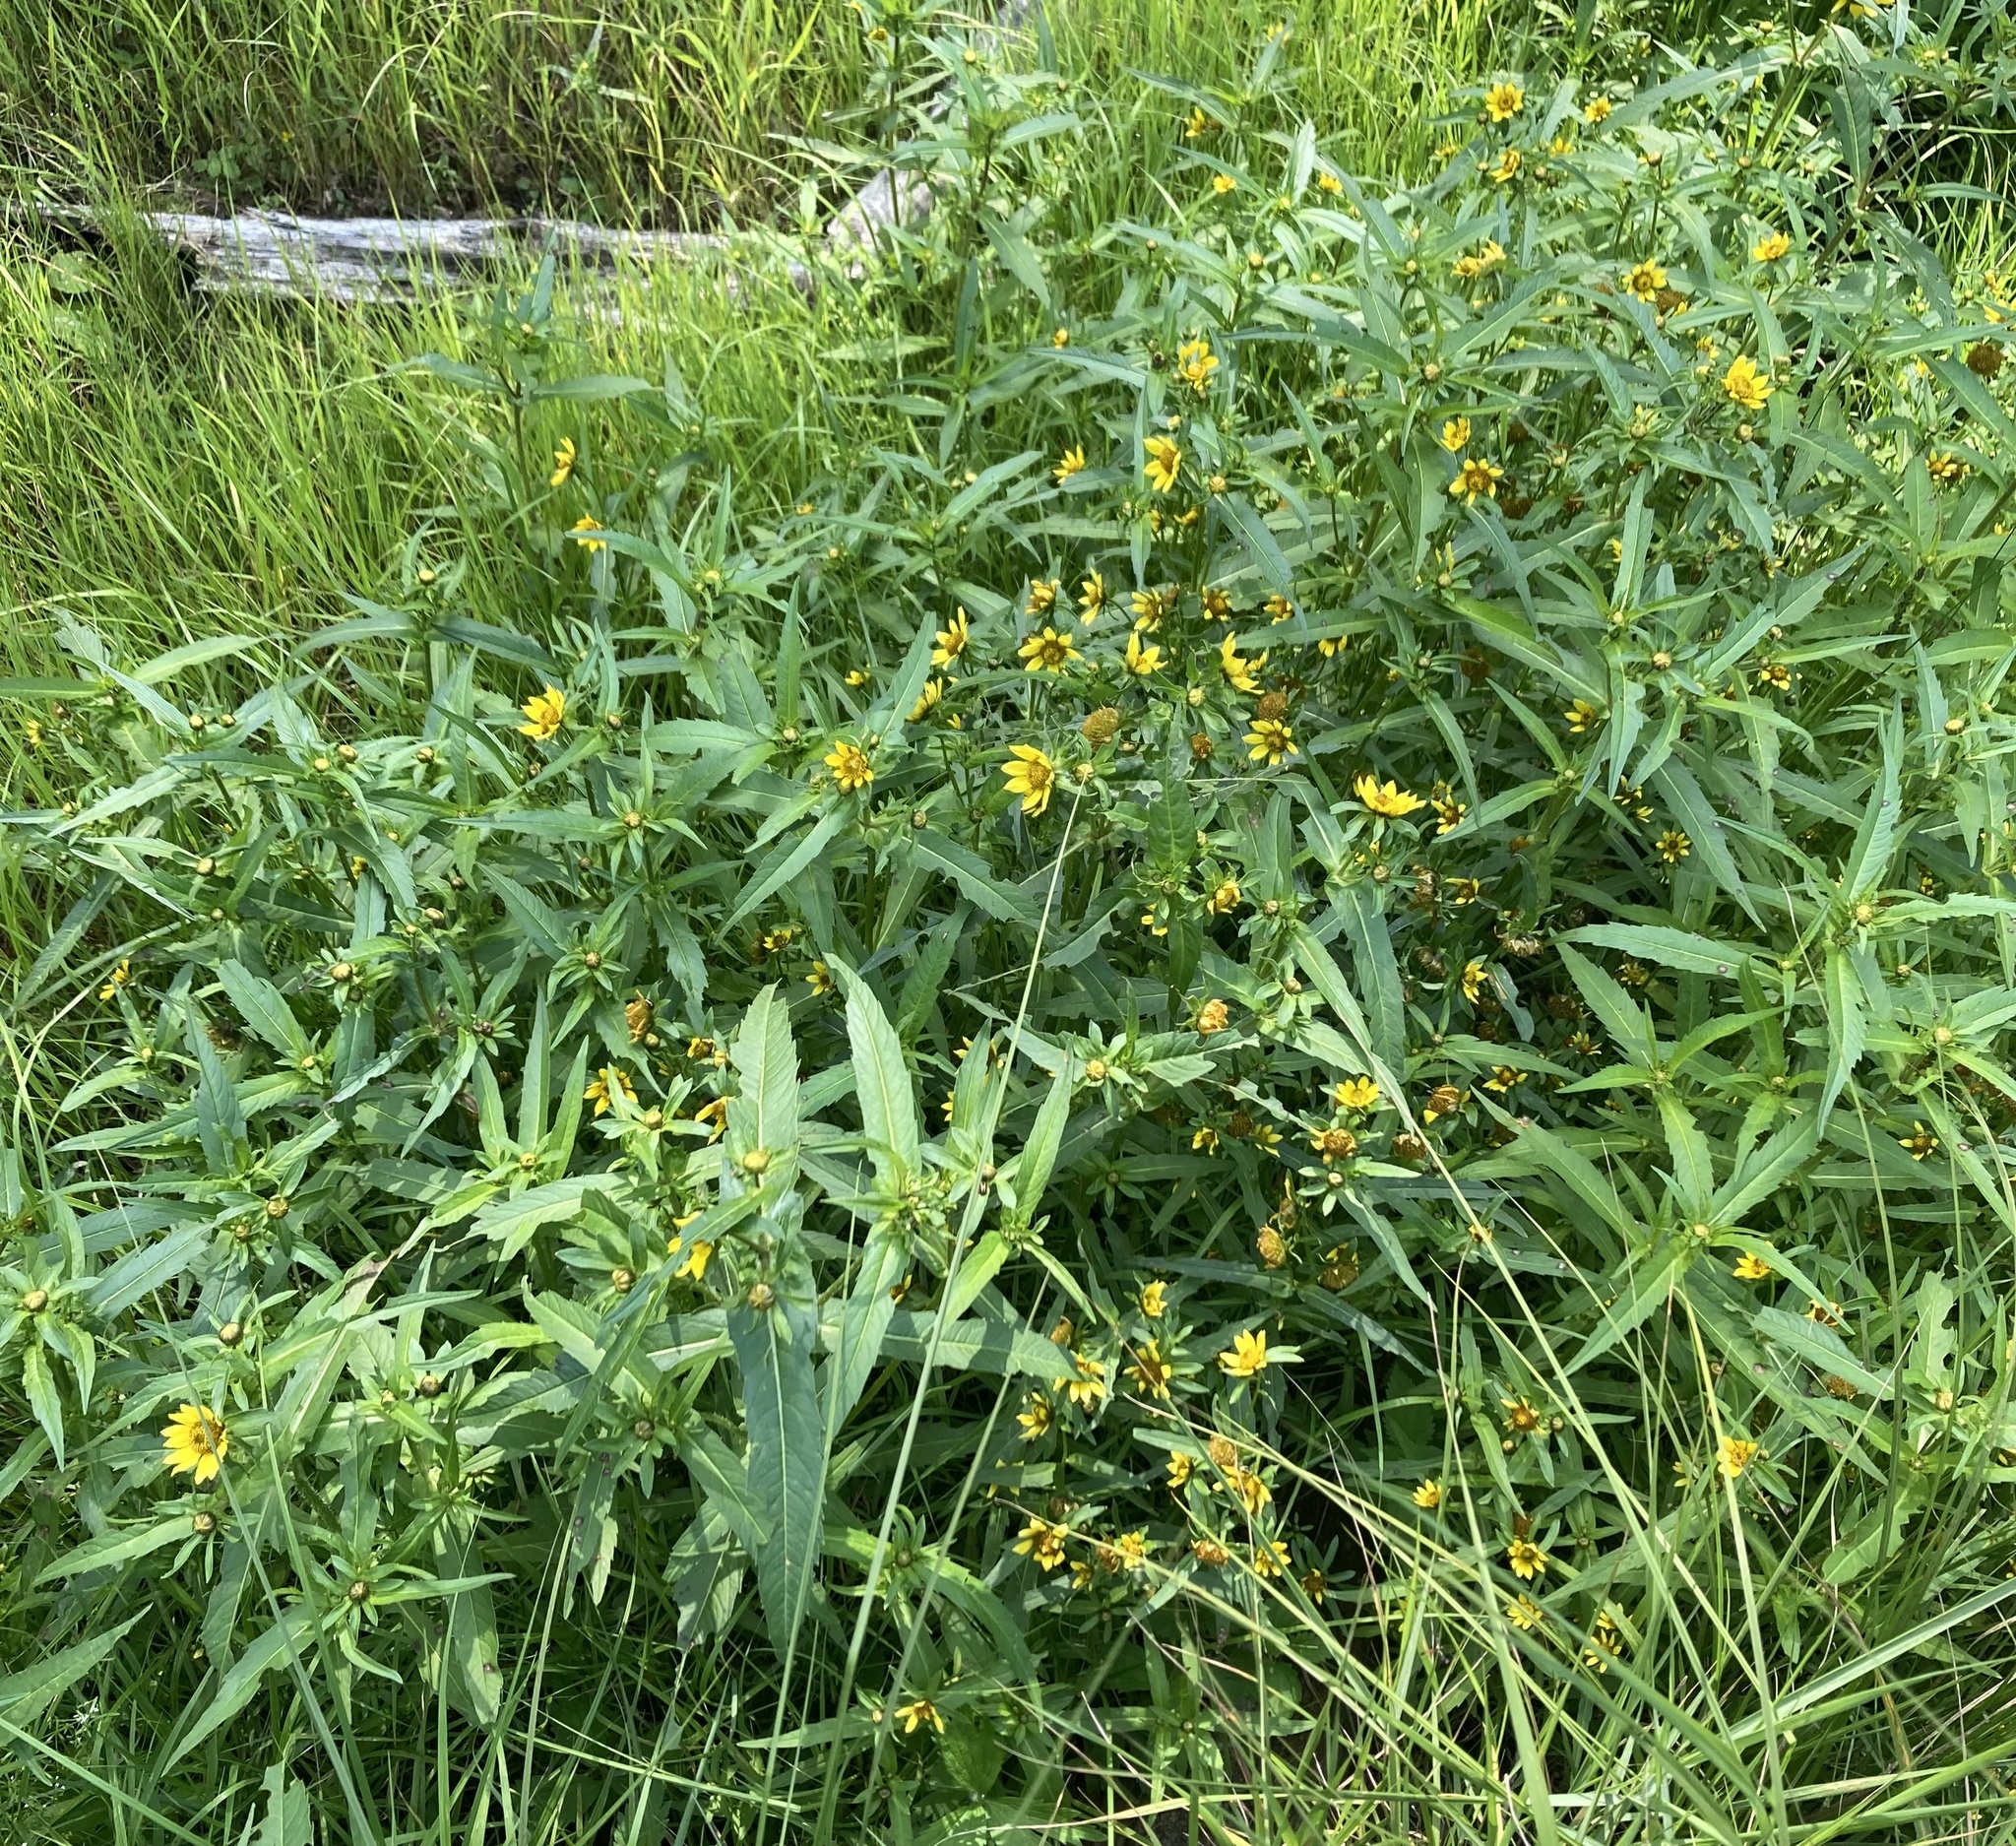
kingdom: Plantae
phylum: Tracheophyta
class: Magnoliopsida
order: Asterales
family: Asteraceae
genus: Bidens
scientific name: Bidens cernua
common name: Nodding bur-marigold
